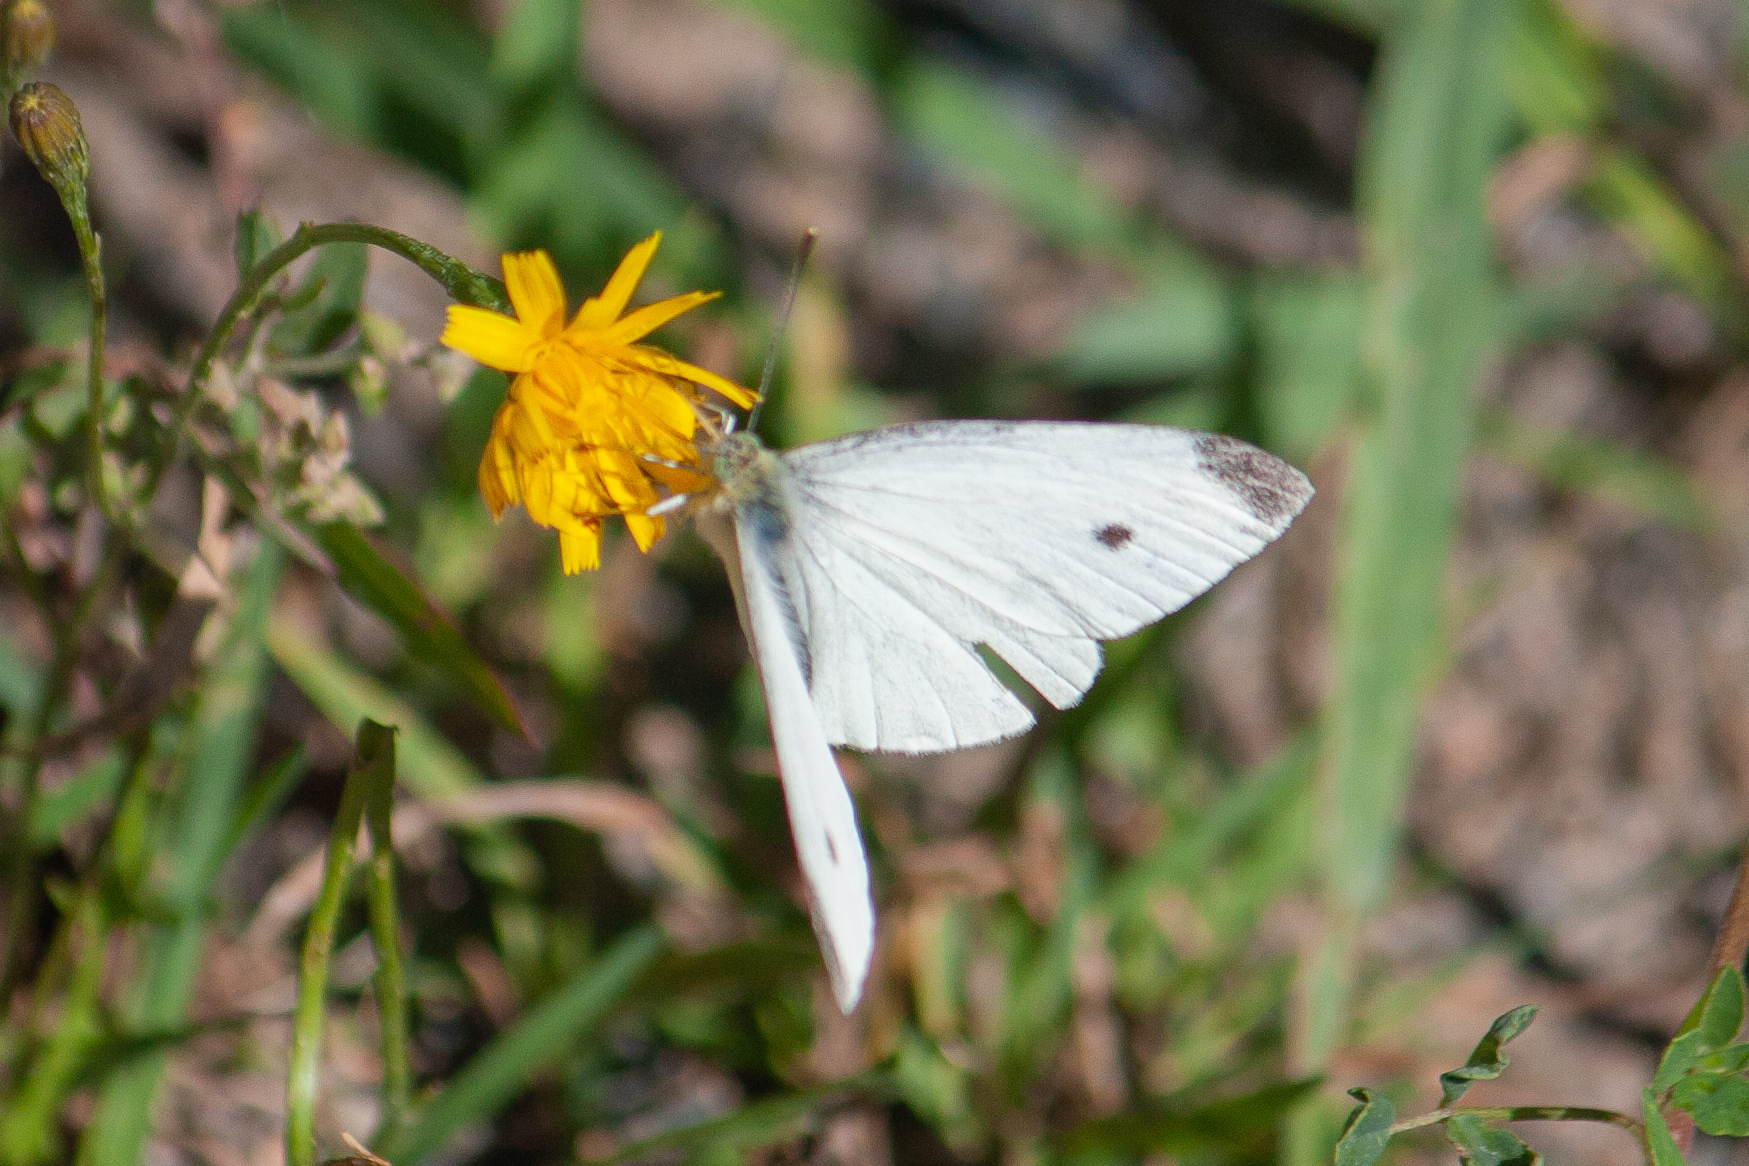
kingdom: Animalia
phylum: Arthropoda
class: Insecta
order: Lepidoptera
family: Pieridae
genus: Pieris
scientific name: Pieris rapae
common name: Small white
